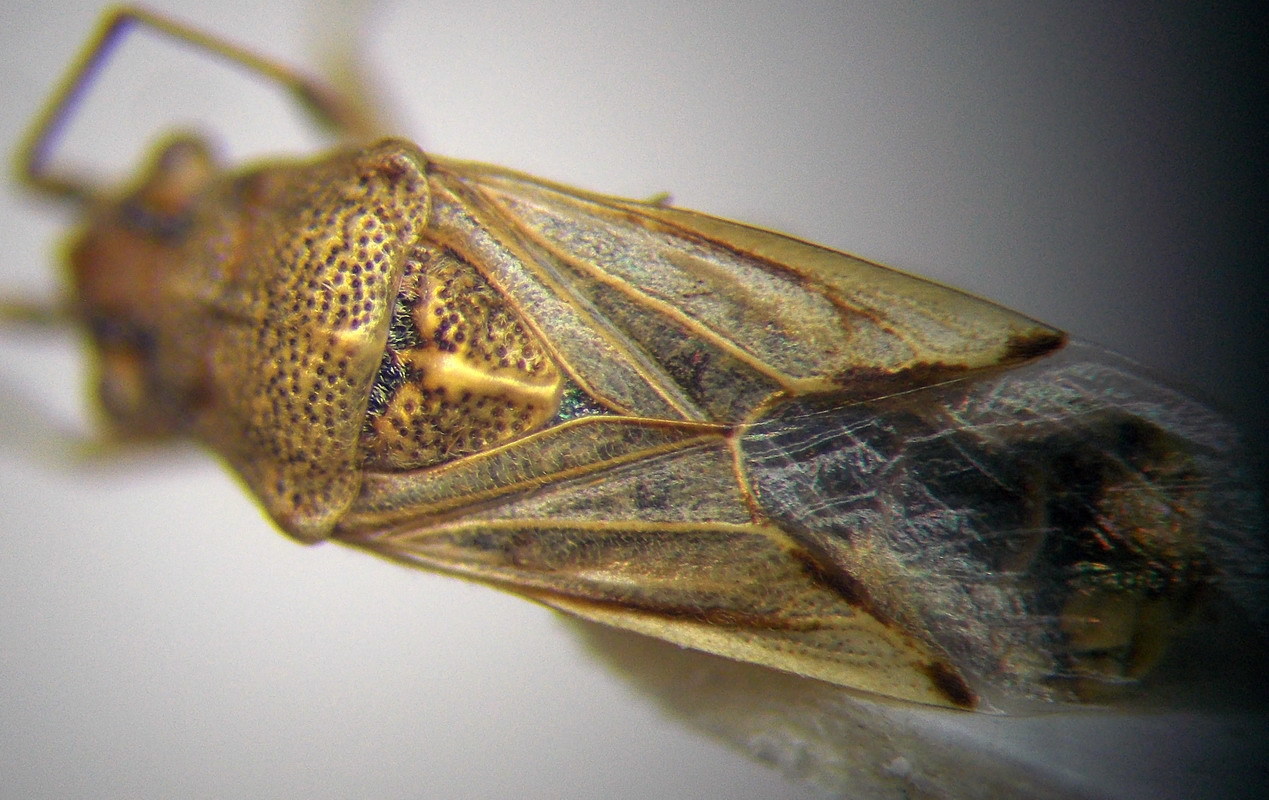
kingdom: Animalia
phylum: Arthropoda
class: Insecta
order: Hemiptera
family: Lygaeidae
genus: Nysius
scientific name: Nysius helveticus
